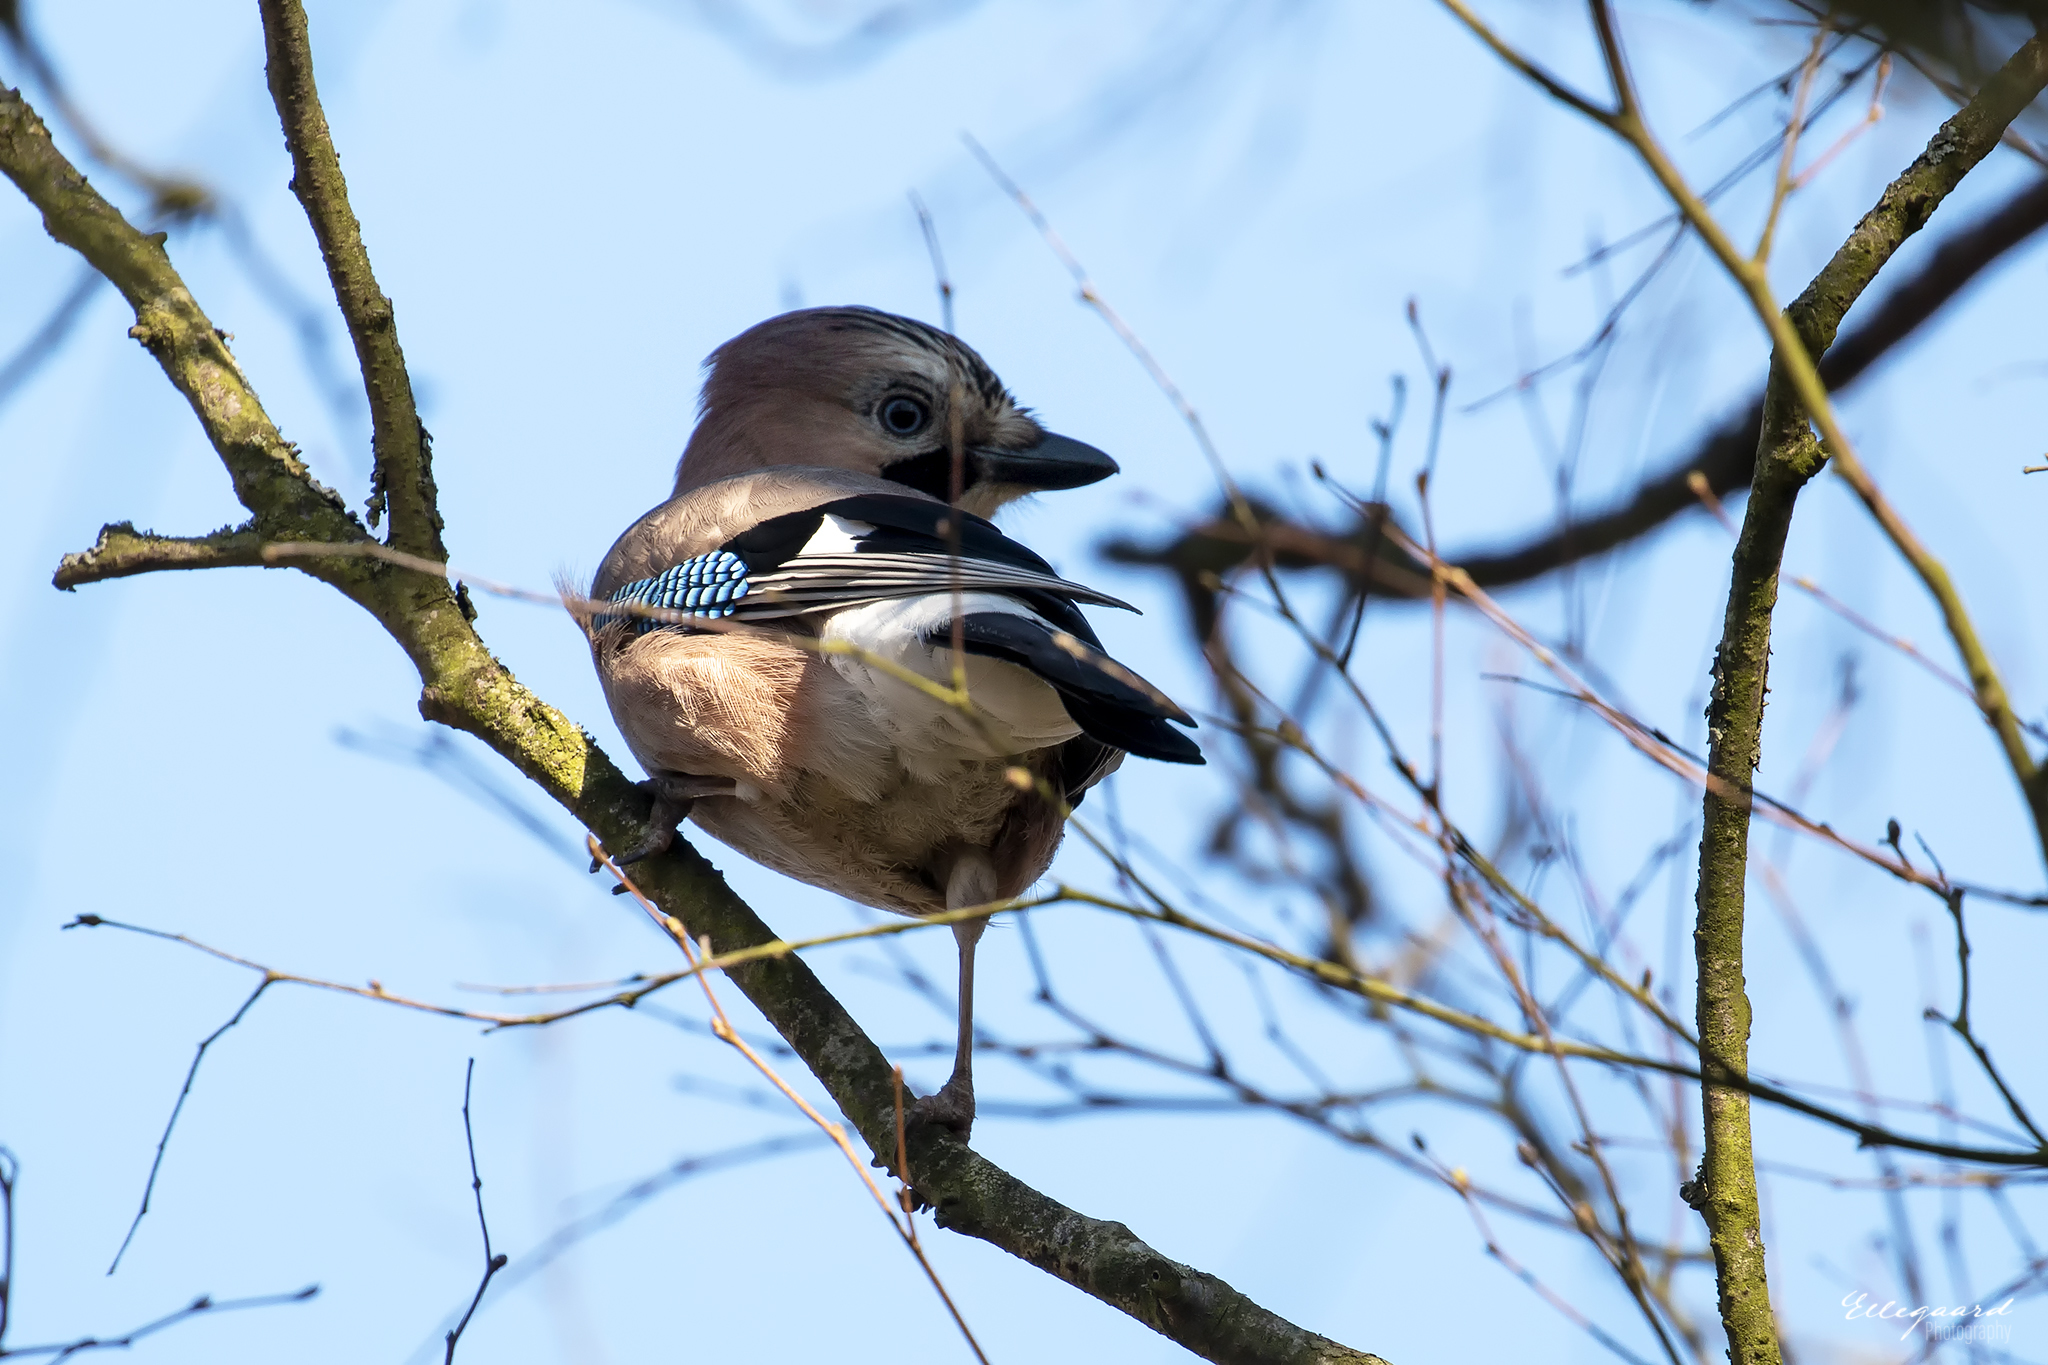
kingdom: Animalia
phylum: Chordata
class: Aves
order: Passeriformes
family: Corvidae
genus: Garrulus
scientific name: Garrulus glandarius
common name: Eurasian jay
